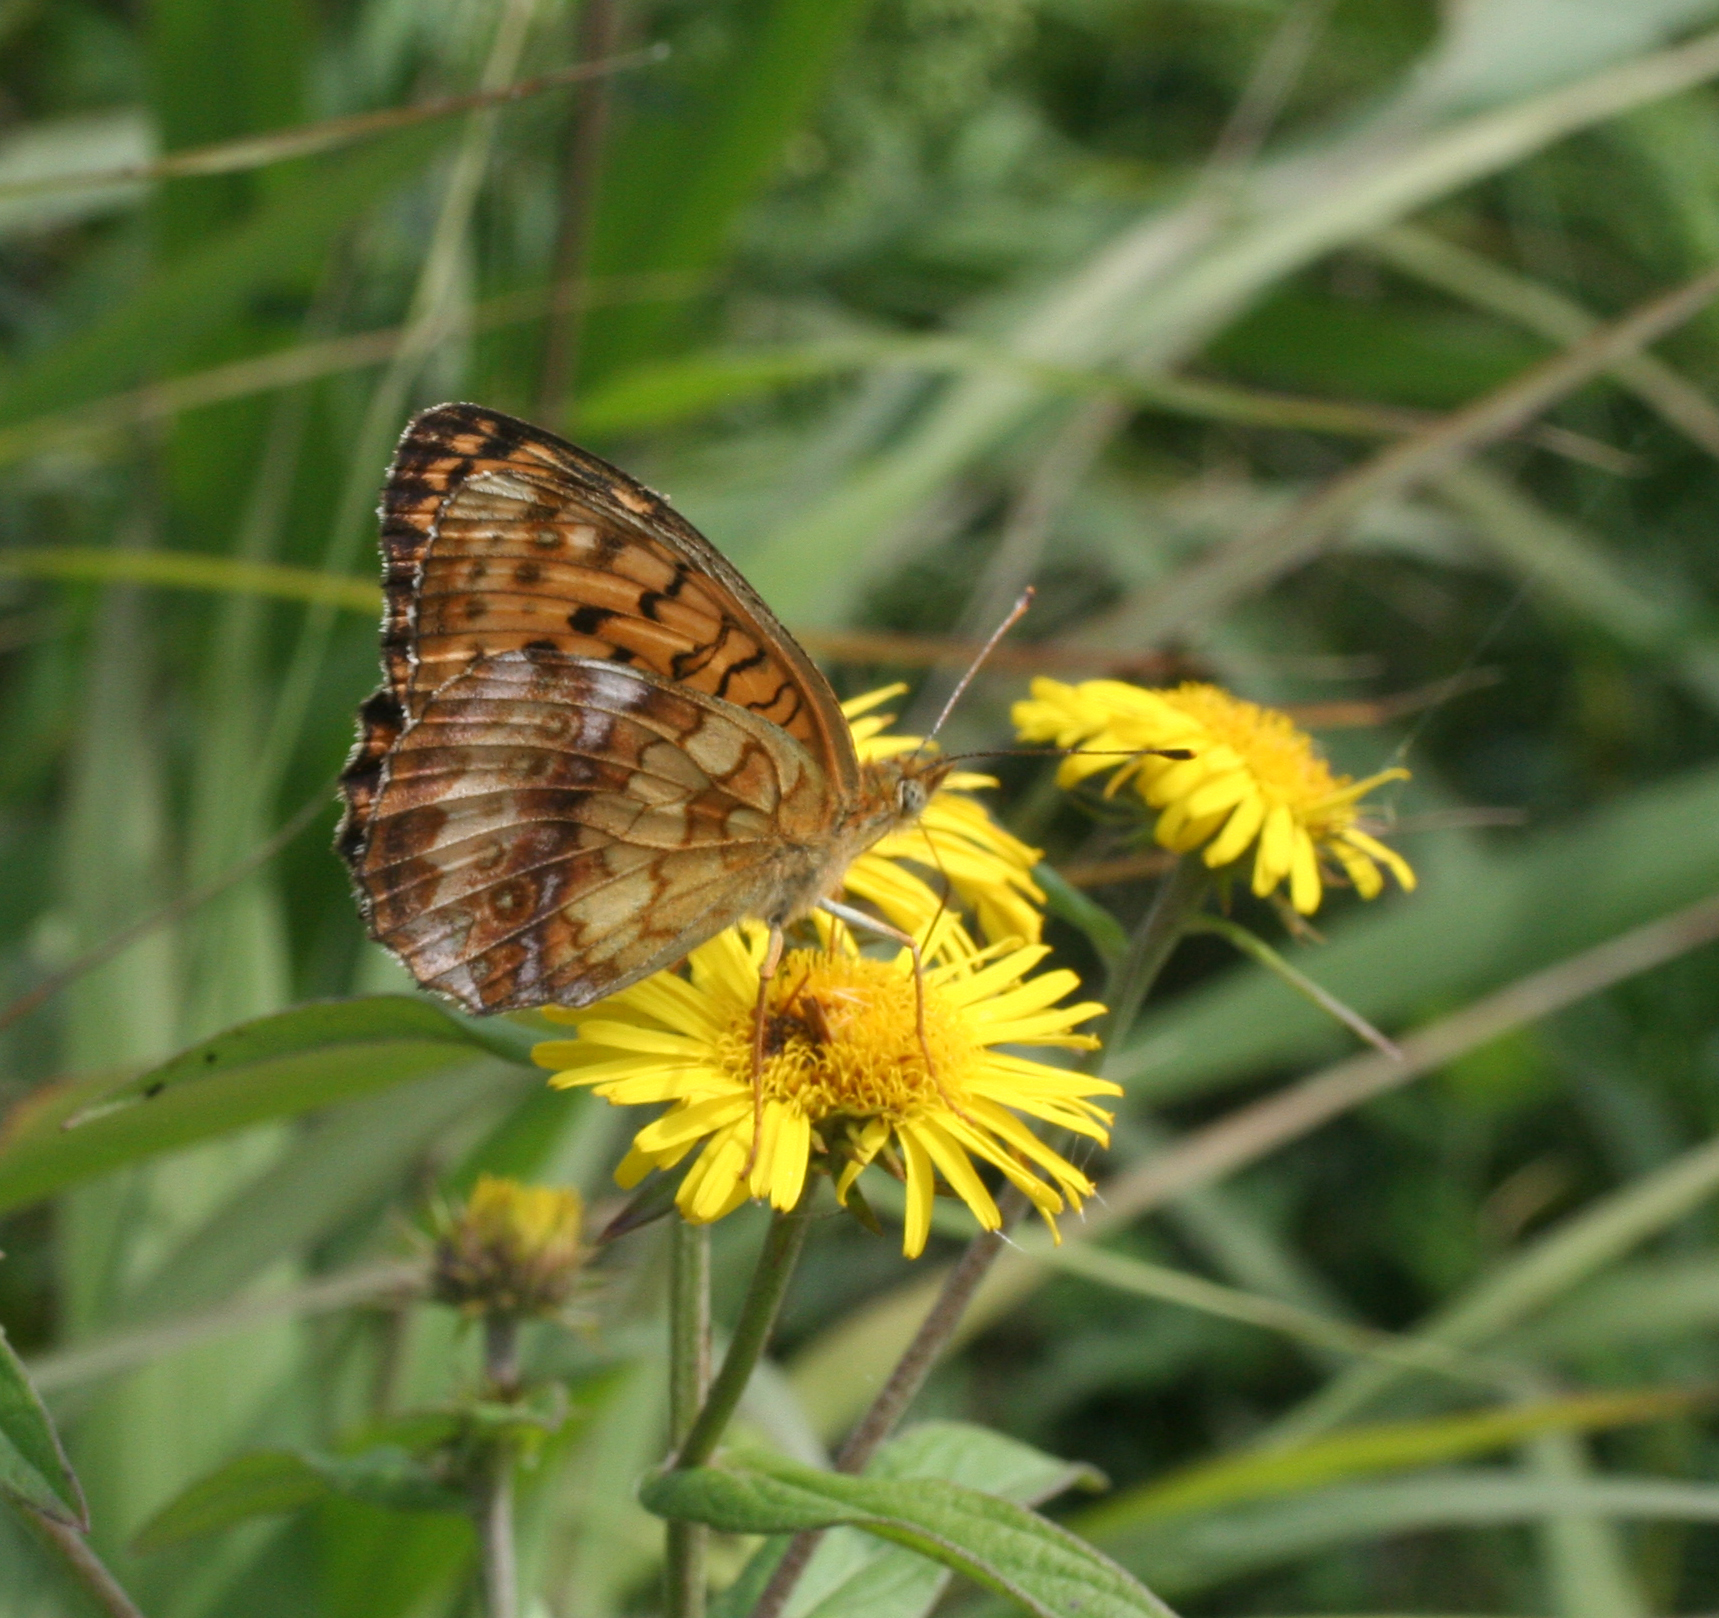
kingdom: Animalia
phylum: Arthropoda
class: Insecta
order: Lepidoptera
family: Nymphalidae
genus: Brenthis
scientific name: Brenthis ino
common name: Lesser marbled fritillary
